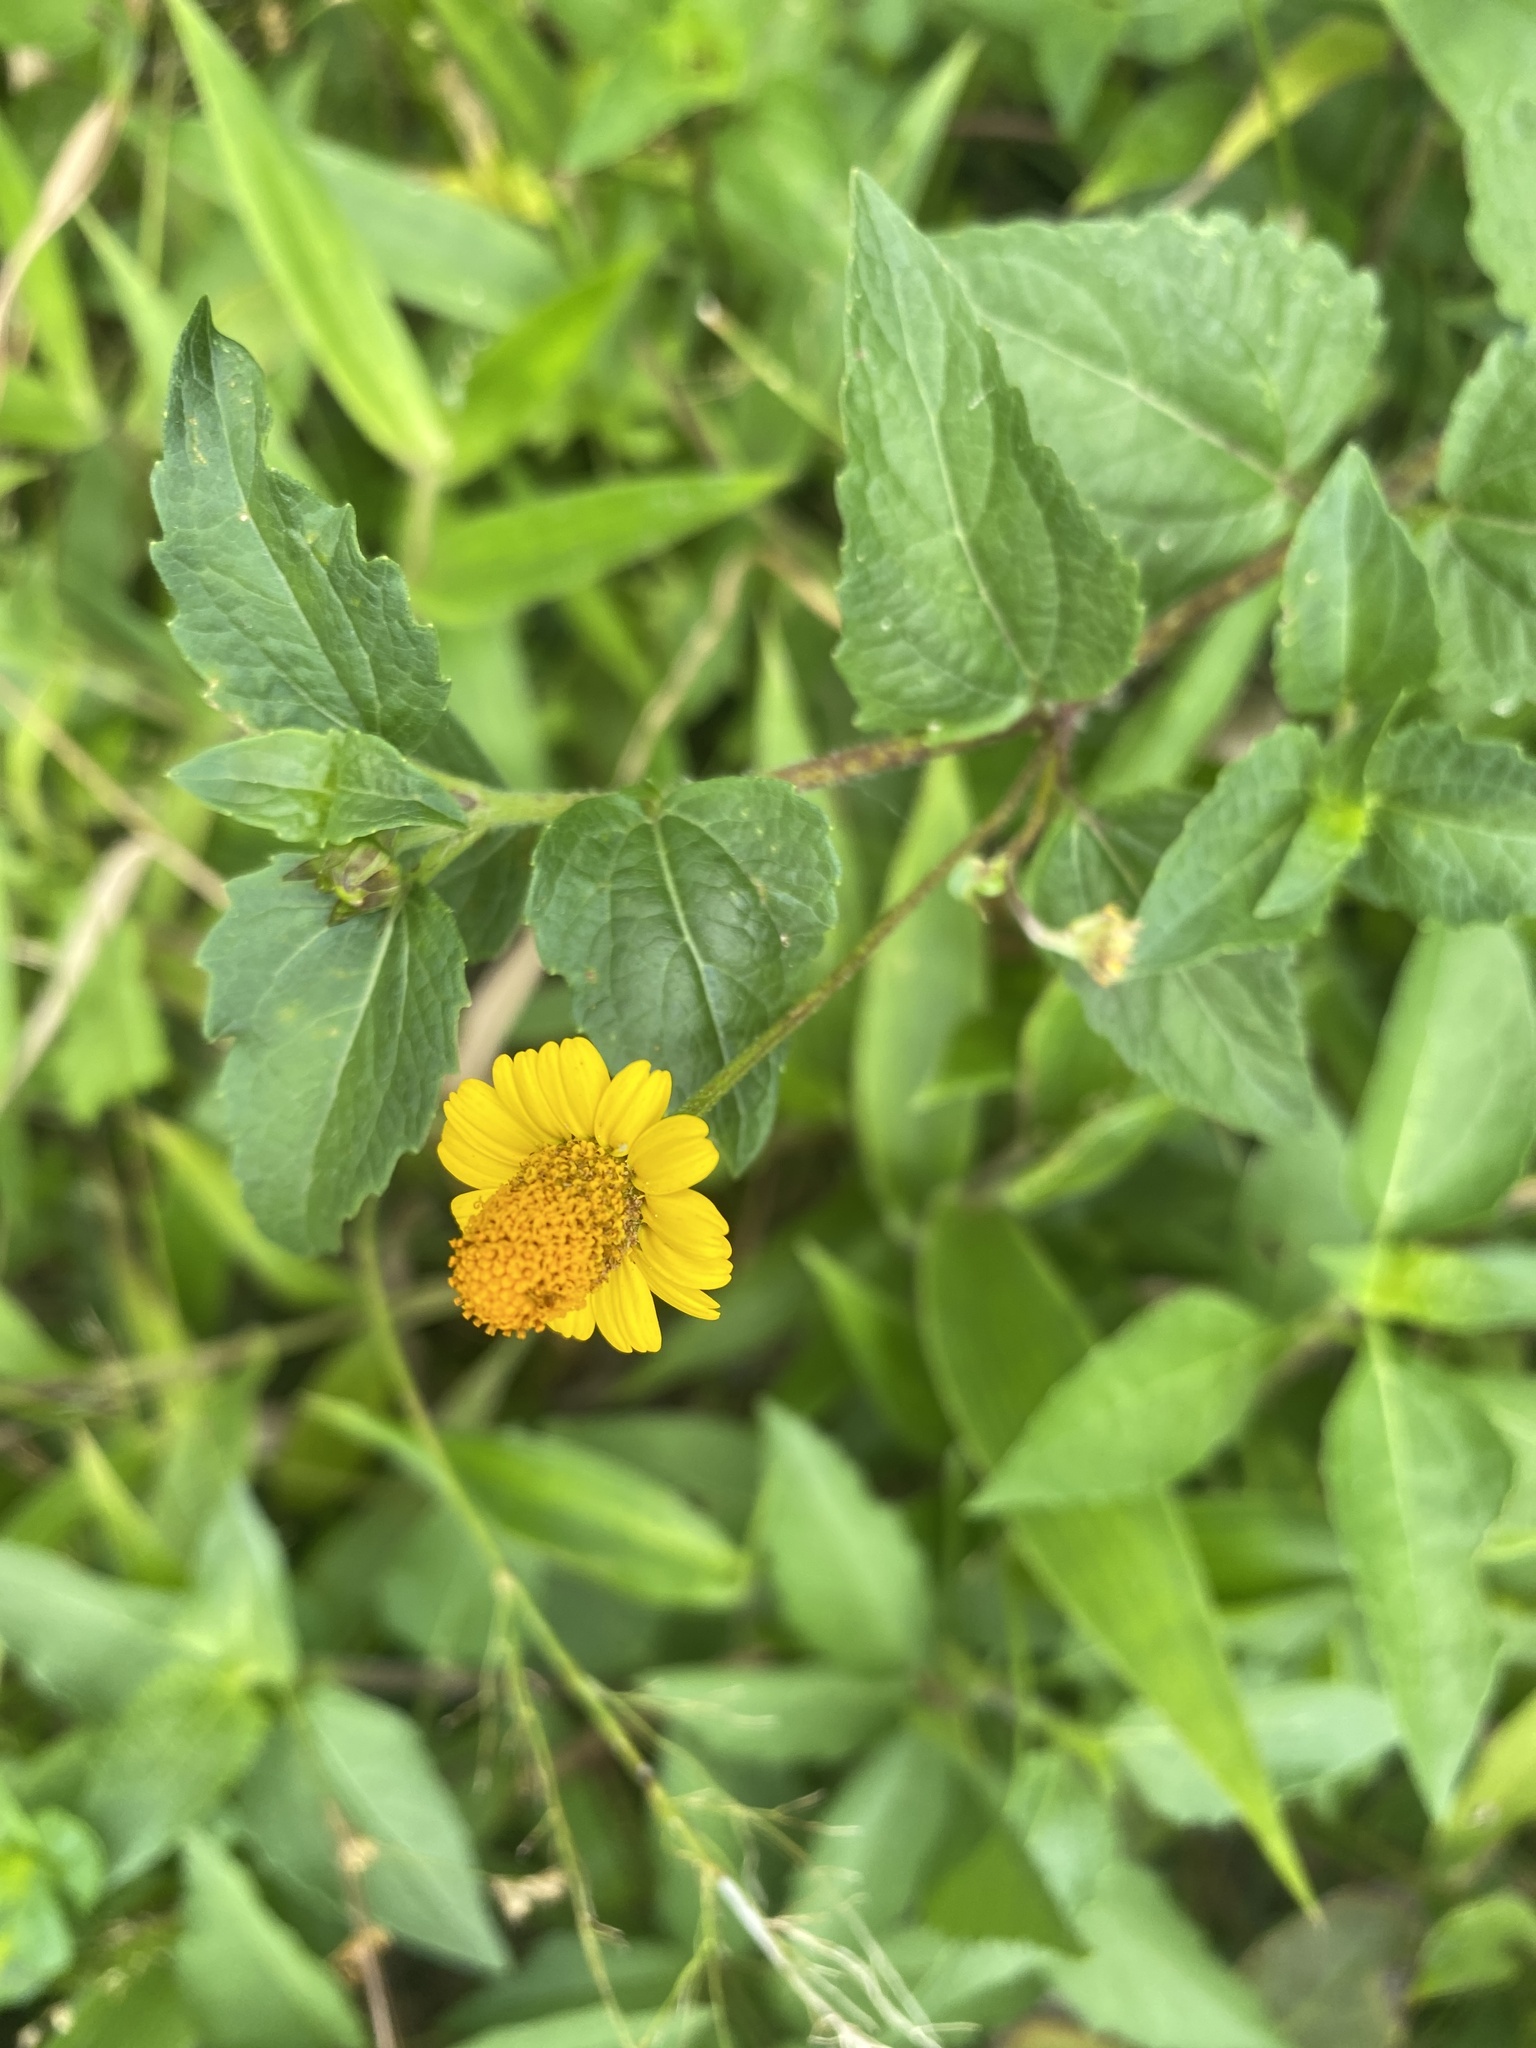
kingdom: Plantae
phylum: Tracheophyta
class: Magnoliopsida
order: Asterales
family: Asteraceae
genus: Acmella
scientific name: Acmella repens
